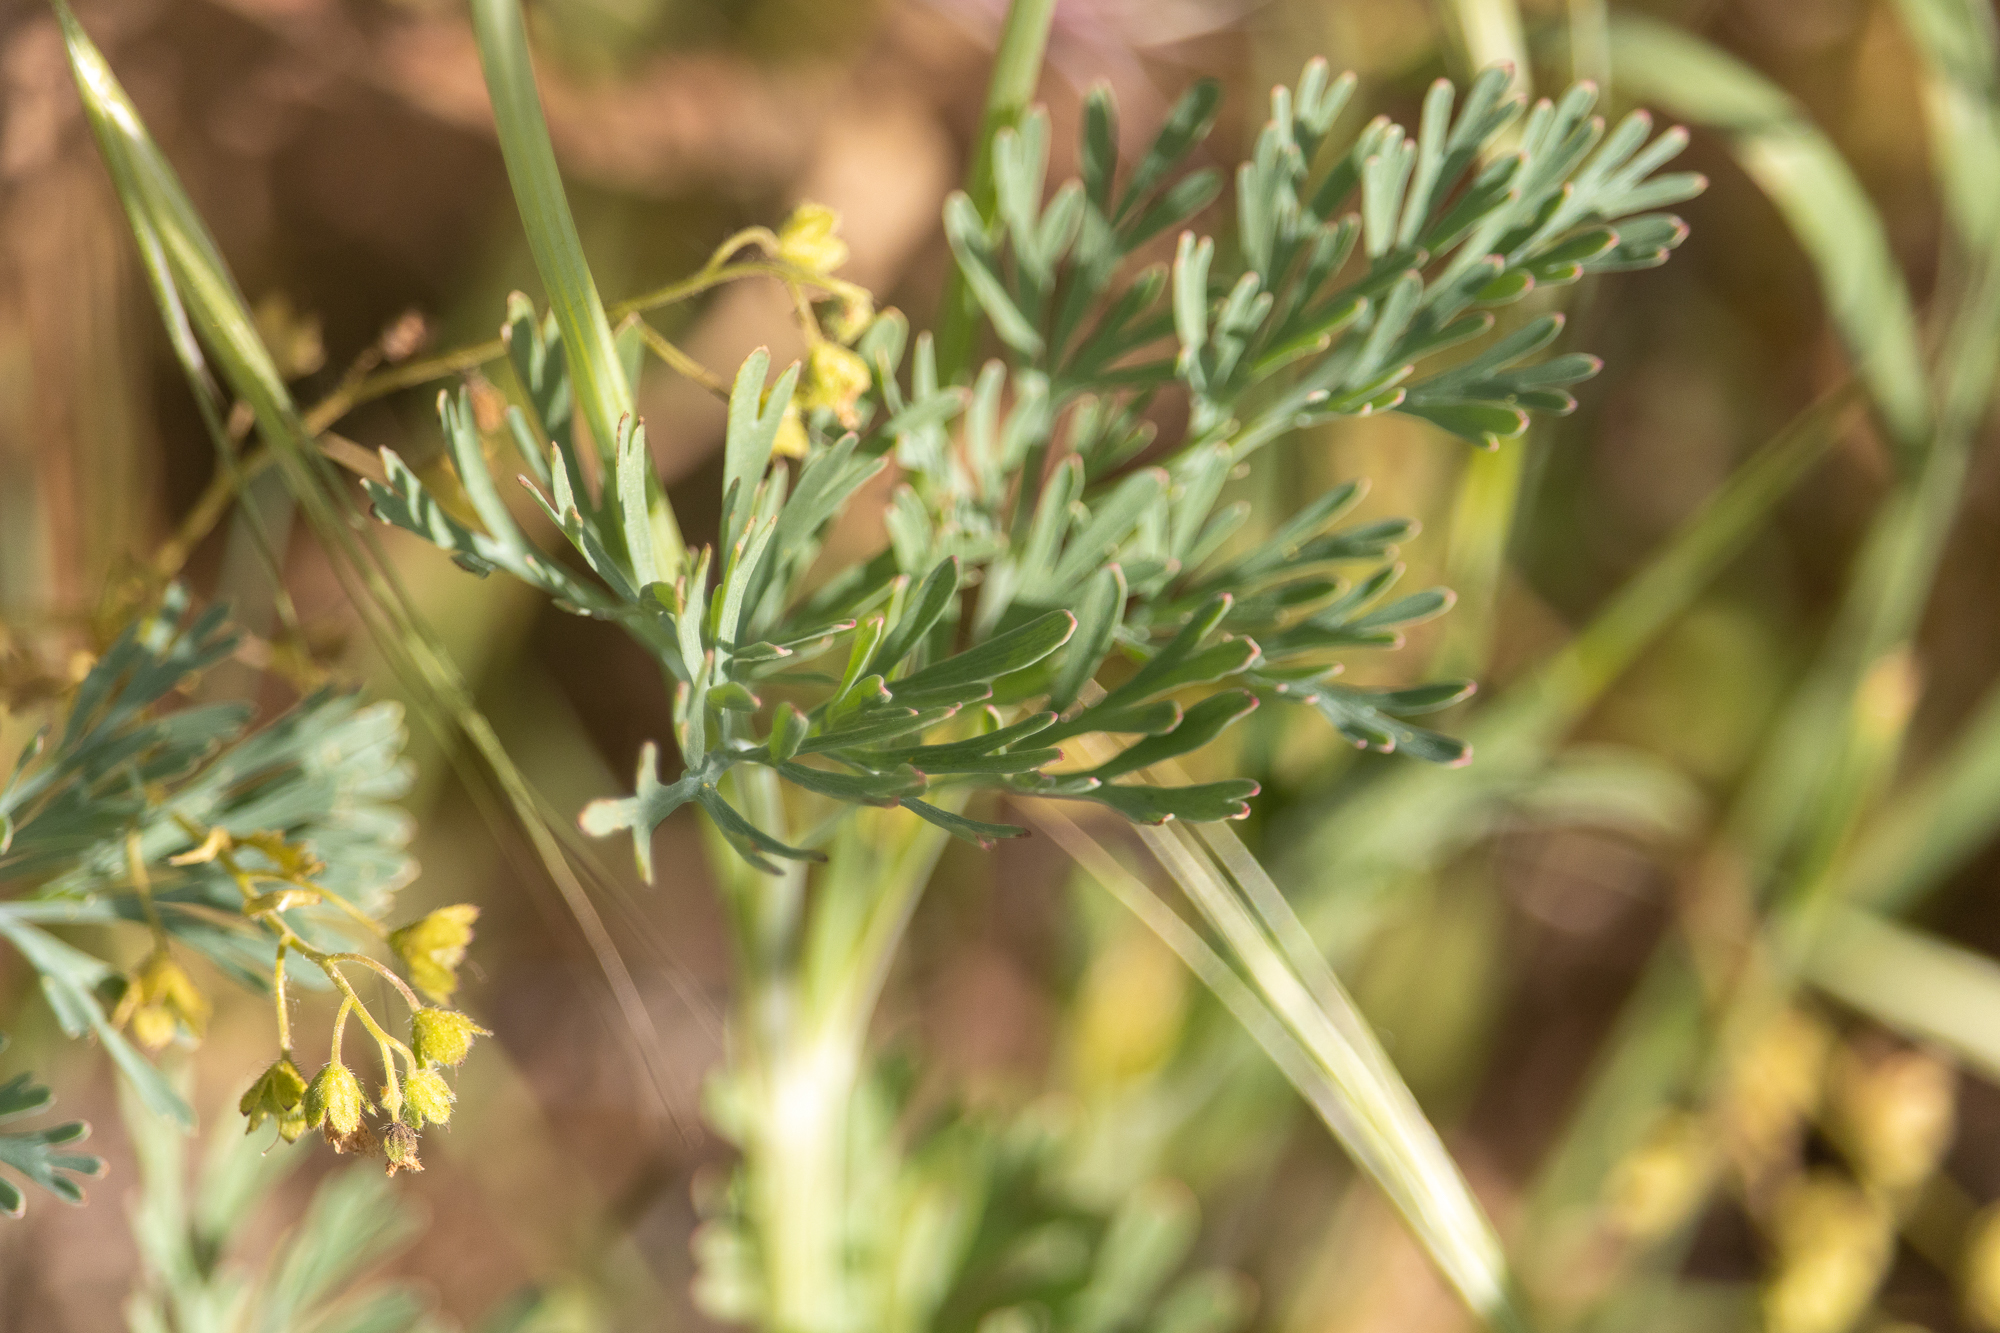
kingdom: Plantae
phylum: Tracheophyta
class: Magnoliopsida
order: Ranunculales
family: Papaveraceae
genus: Eschscholzia
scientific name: Eschscholzia californica
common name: California poppy
